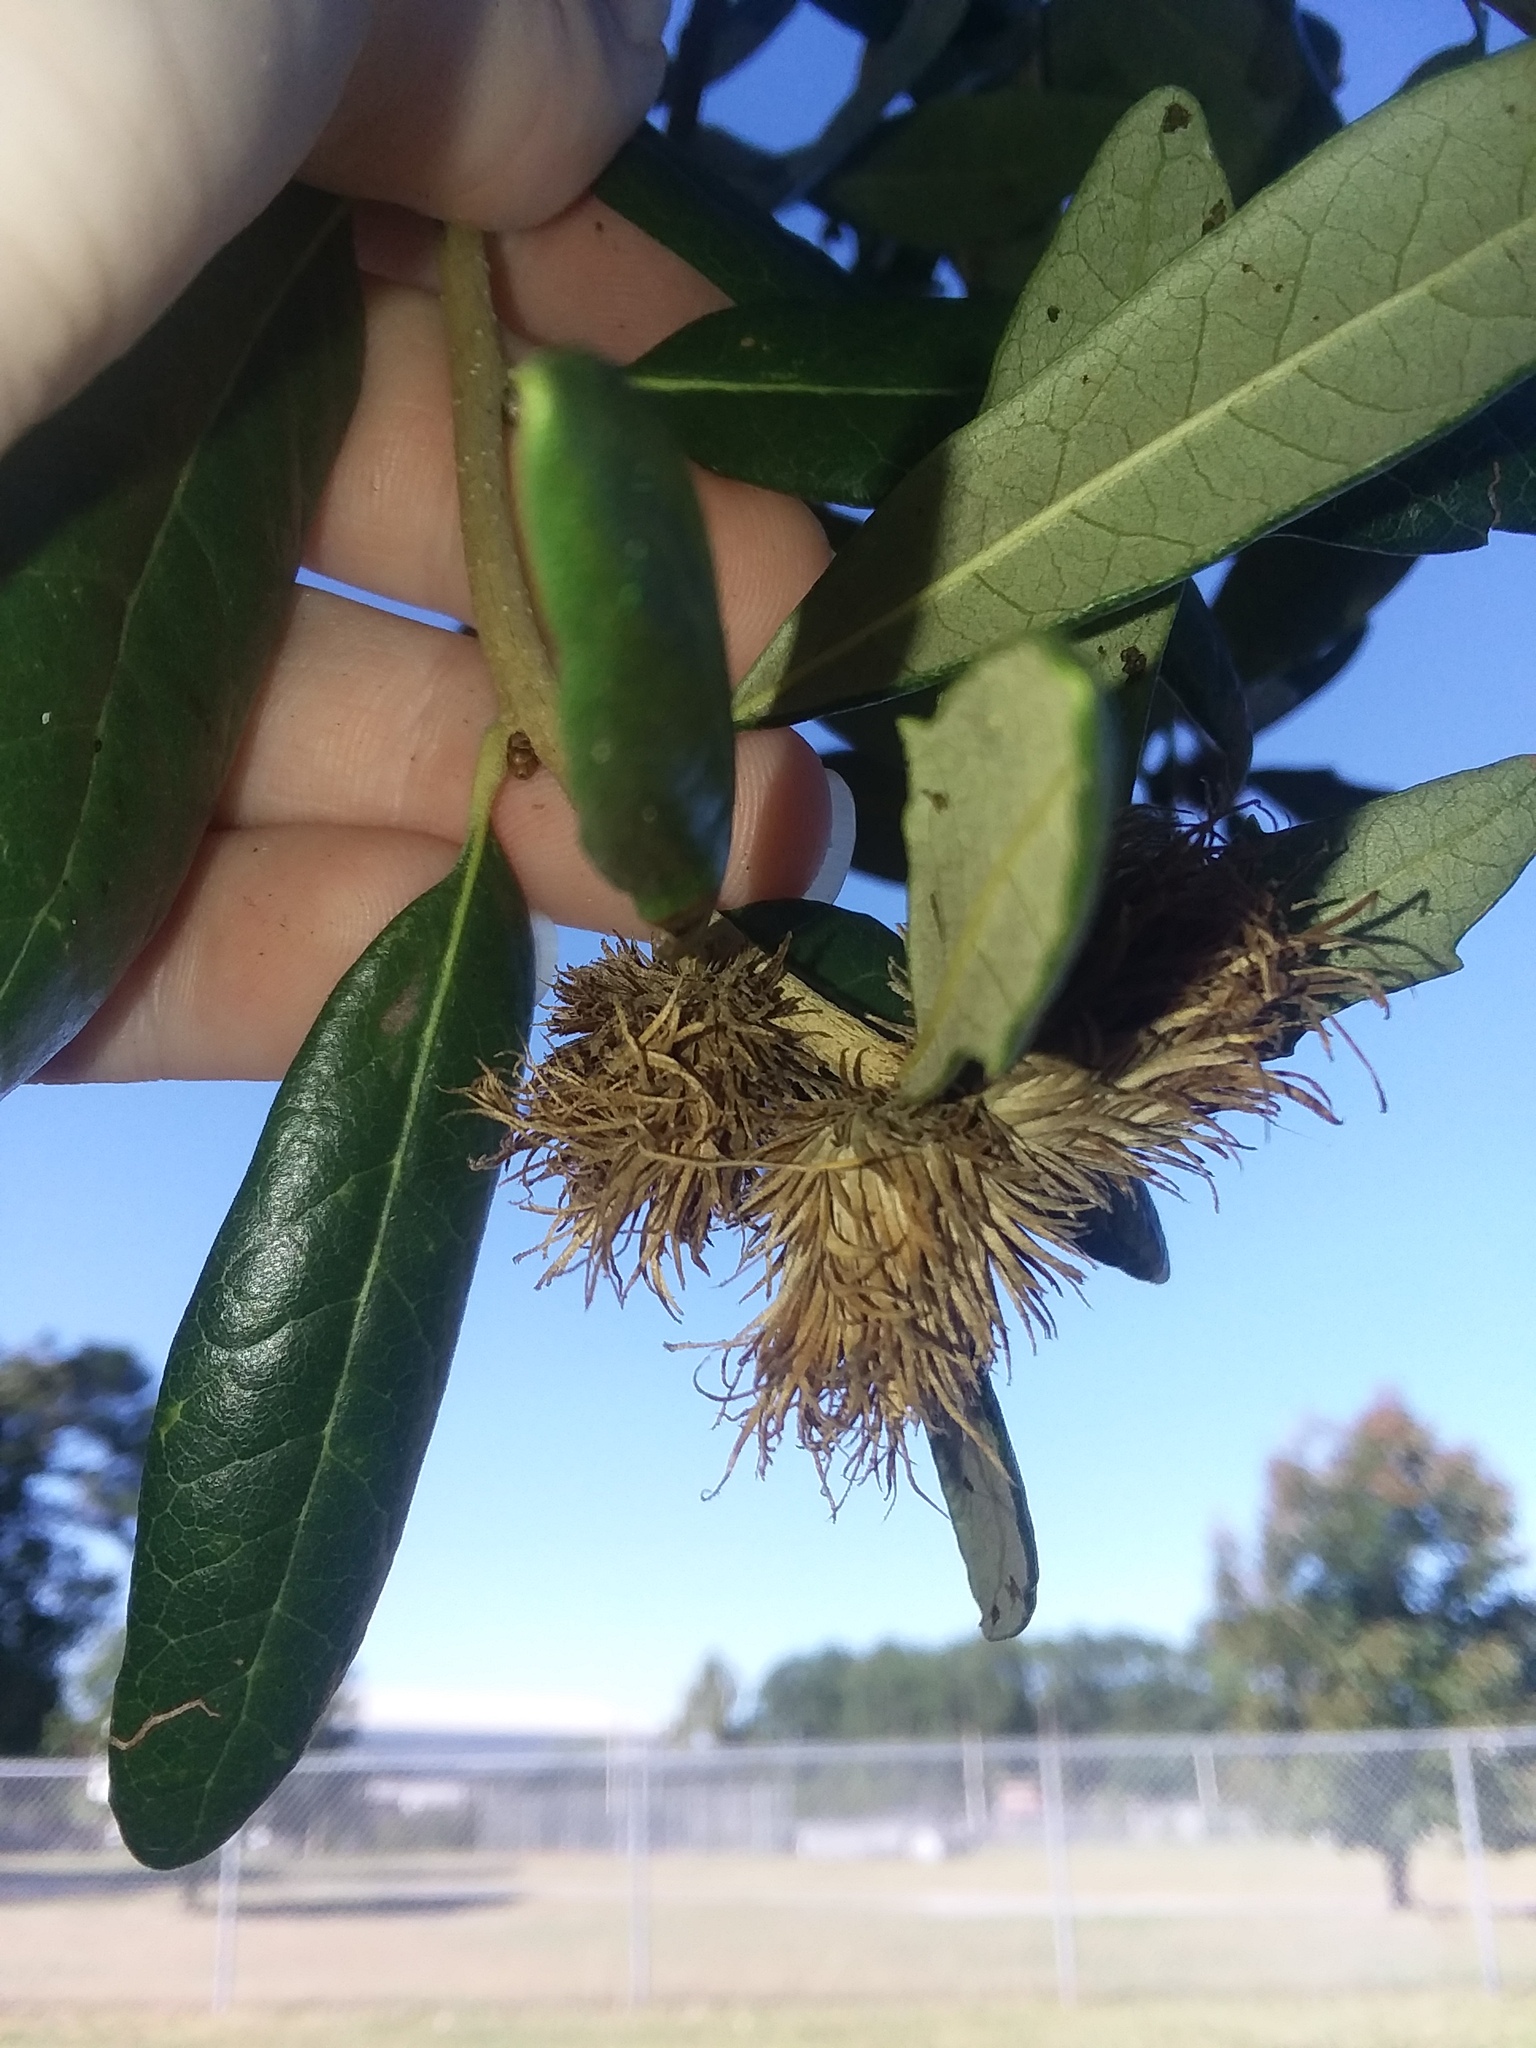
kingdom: Animalia
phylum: Arthropoda
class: Insecta
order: Hymenoptera
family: Cynipidae
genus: Andricus
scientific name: Andricus quercusfoliatus
